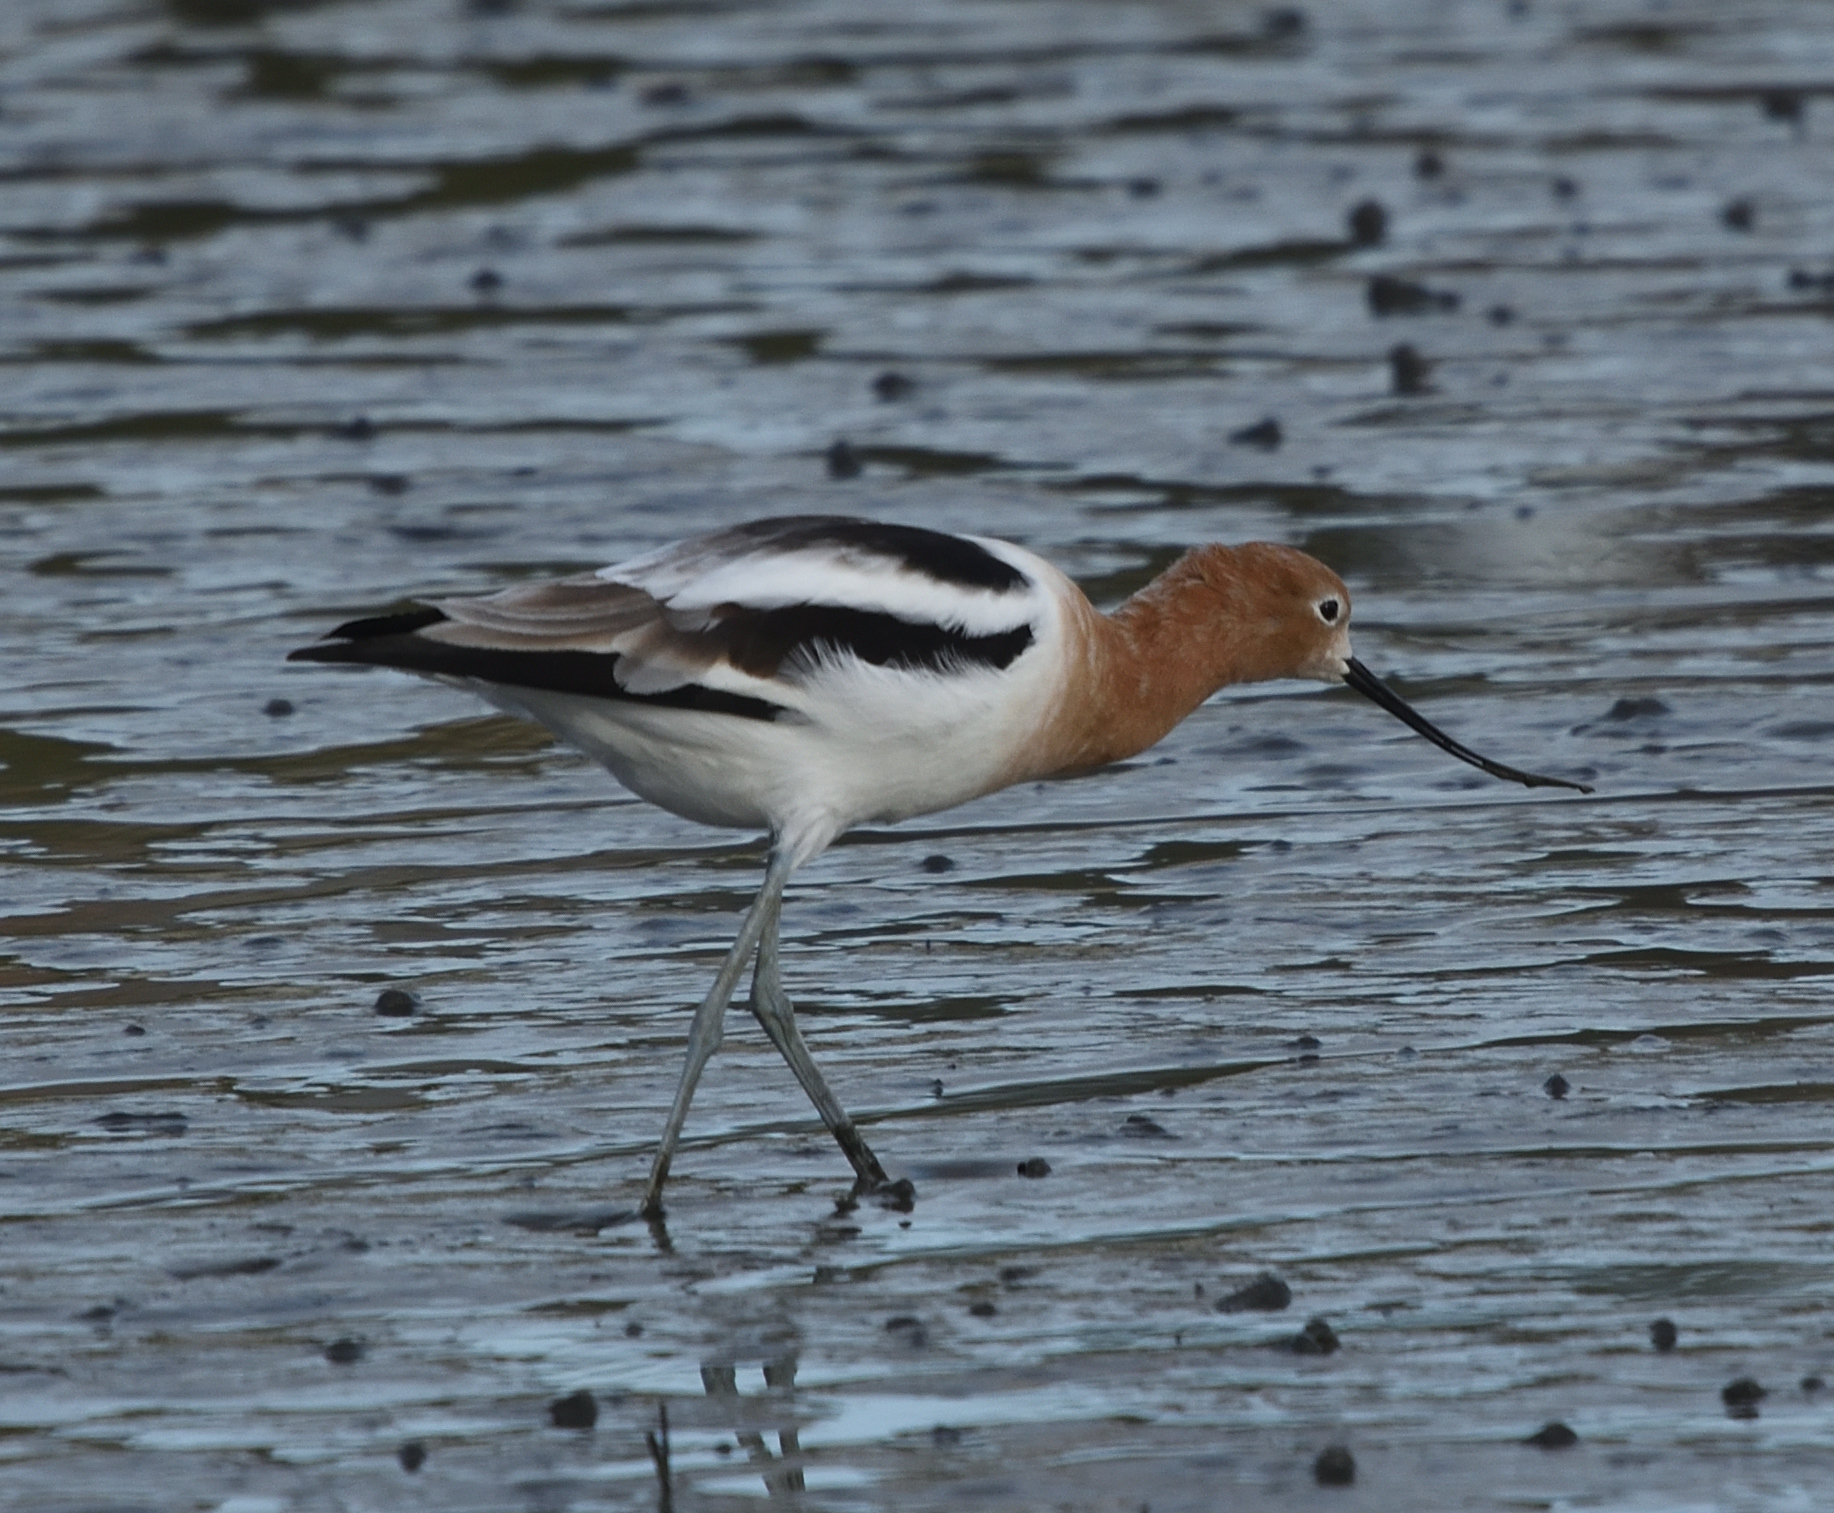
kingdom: Animalia
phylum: Chordata
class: Aves
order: Charadriiformes
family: Recurvirostridae
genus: Recurvirostra
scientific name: Recurvirostra americana
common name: American avocet
